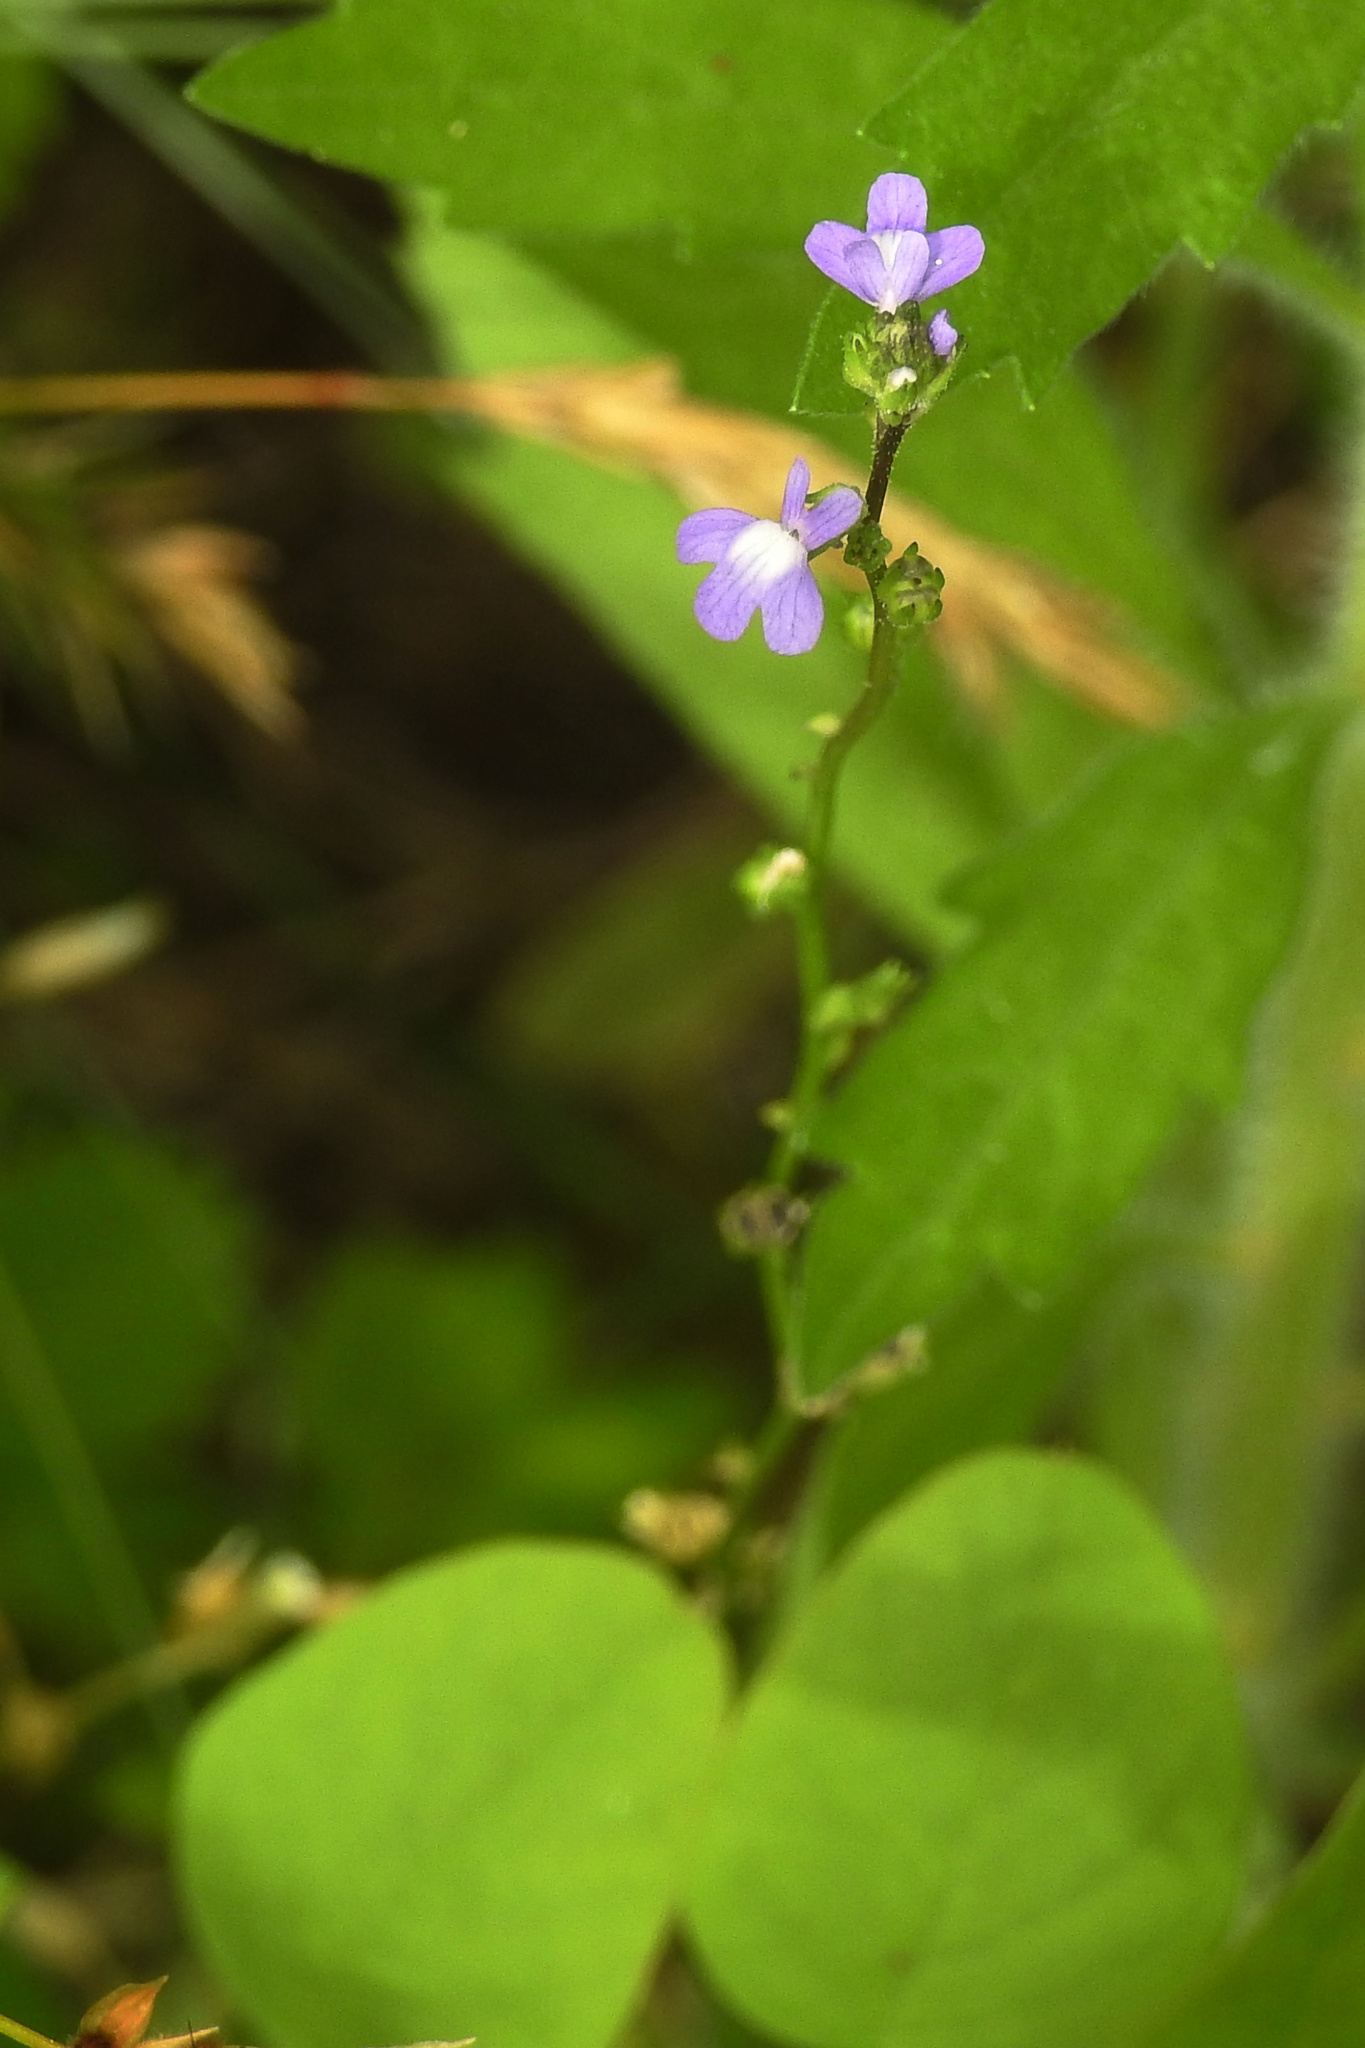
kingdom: Plantae
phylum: Tracheophyta
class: Magnoliopsida
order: Lamiales
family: Plantaginaceae
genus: Nuttallanthus
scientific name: Nuttallanthus canadensis
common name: Blue toadflax
